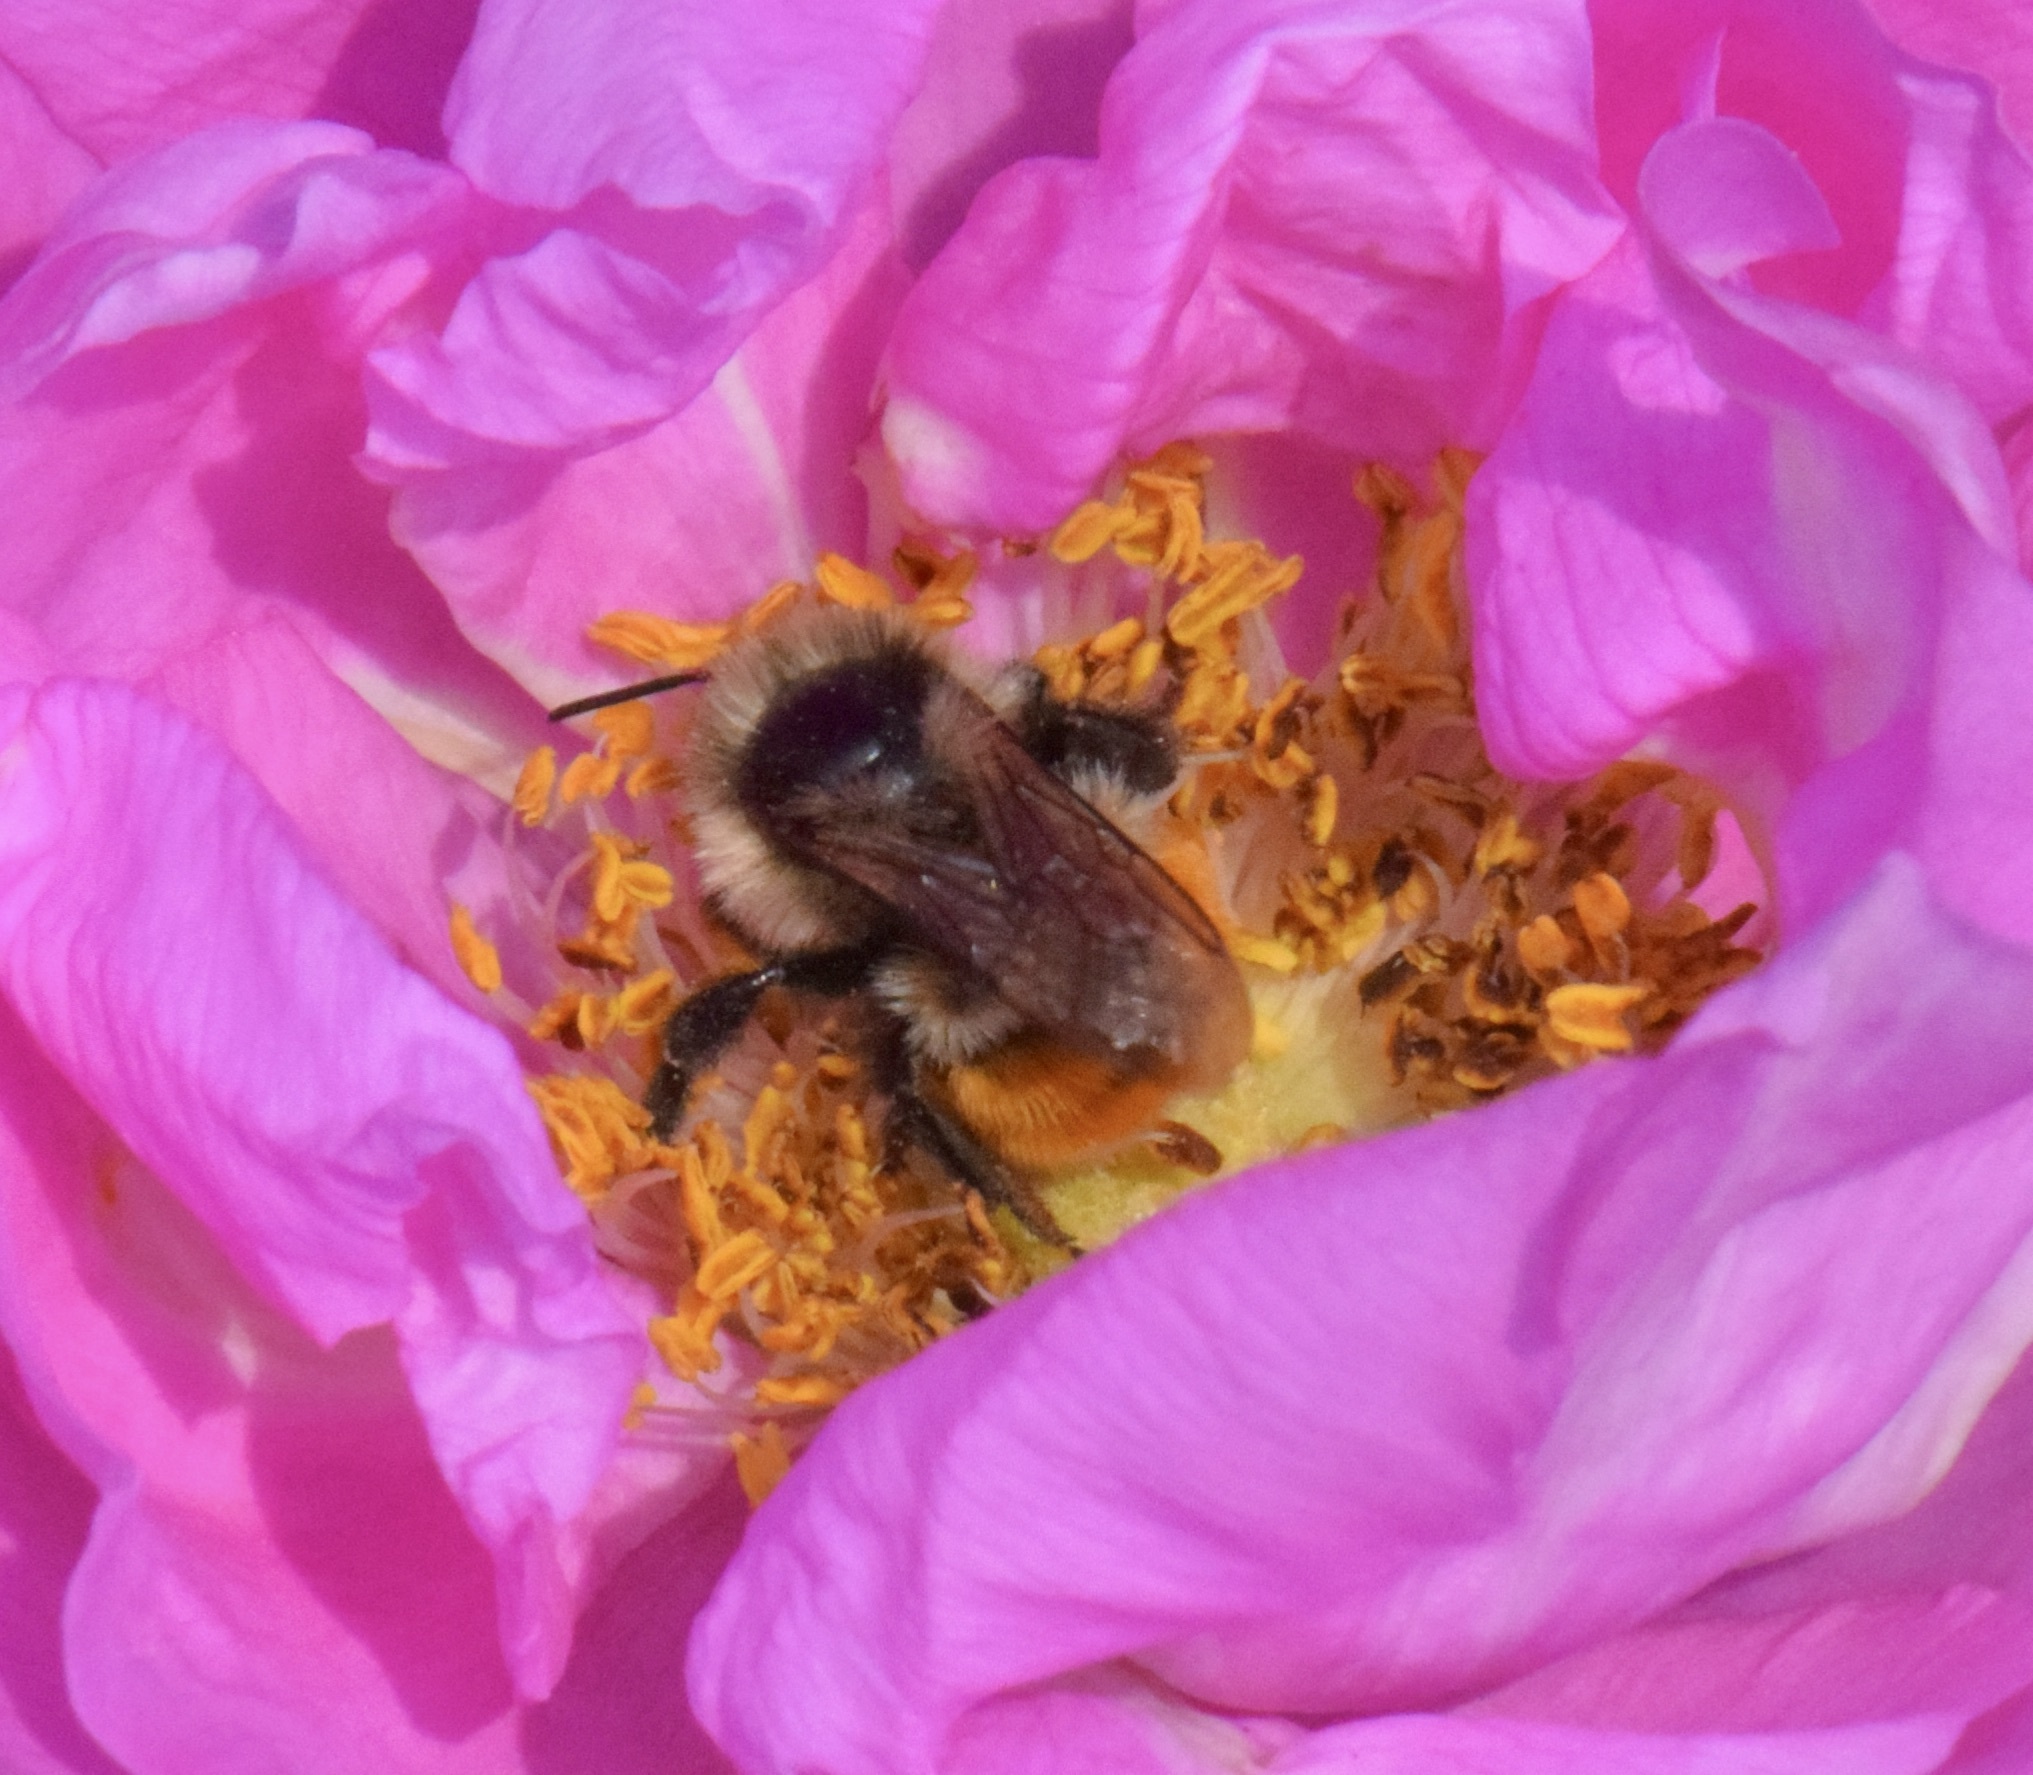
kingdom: Animalia
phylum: Arthropoda
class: Insecta
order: Hymenoptera
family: Apidae
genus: Bombus
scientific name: Bombus ternarius
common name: Tri-colored bumble bee
